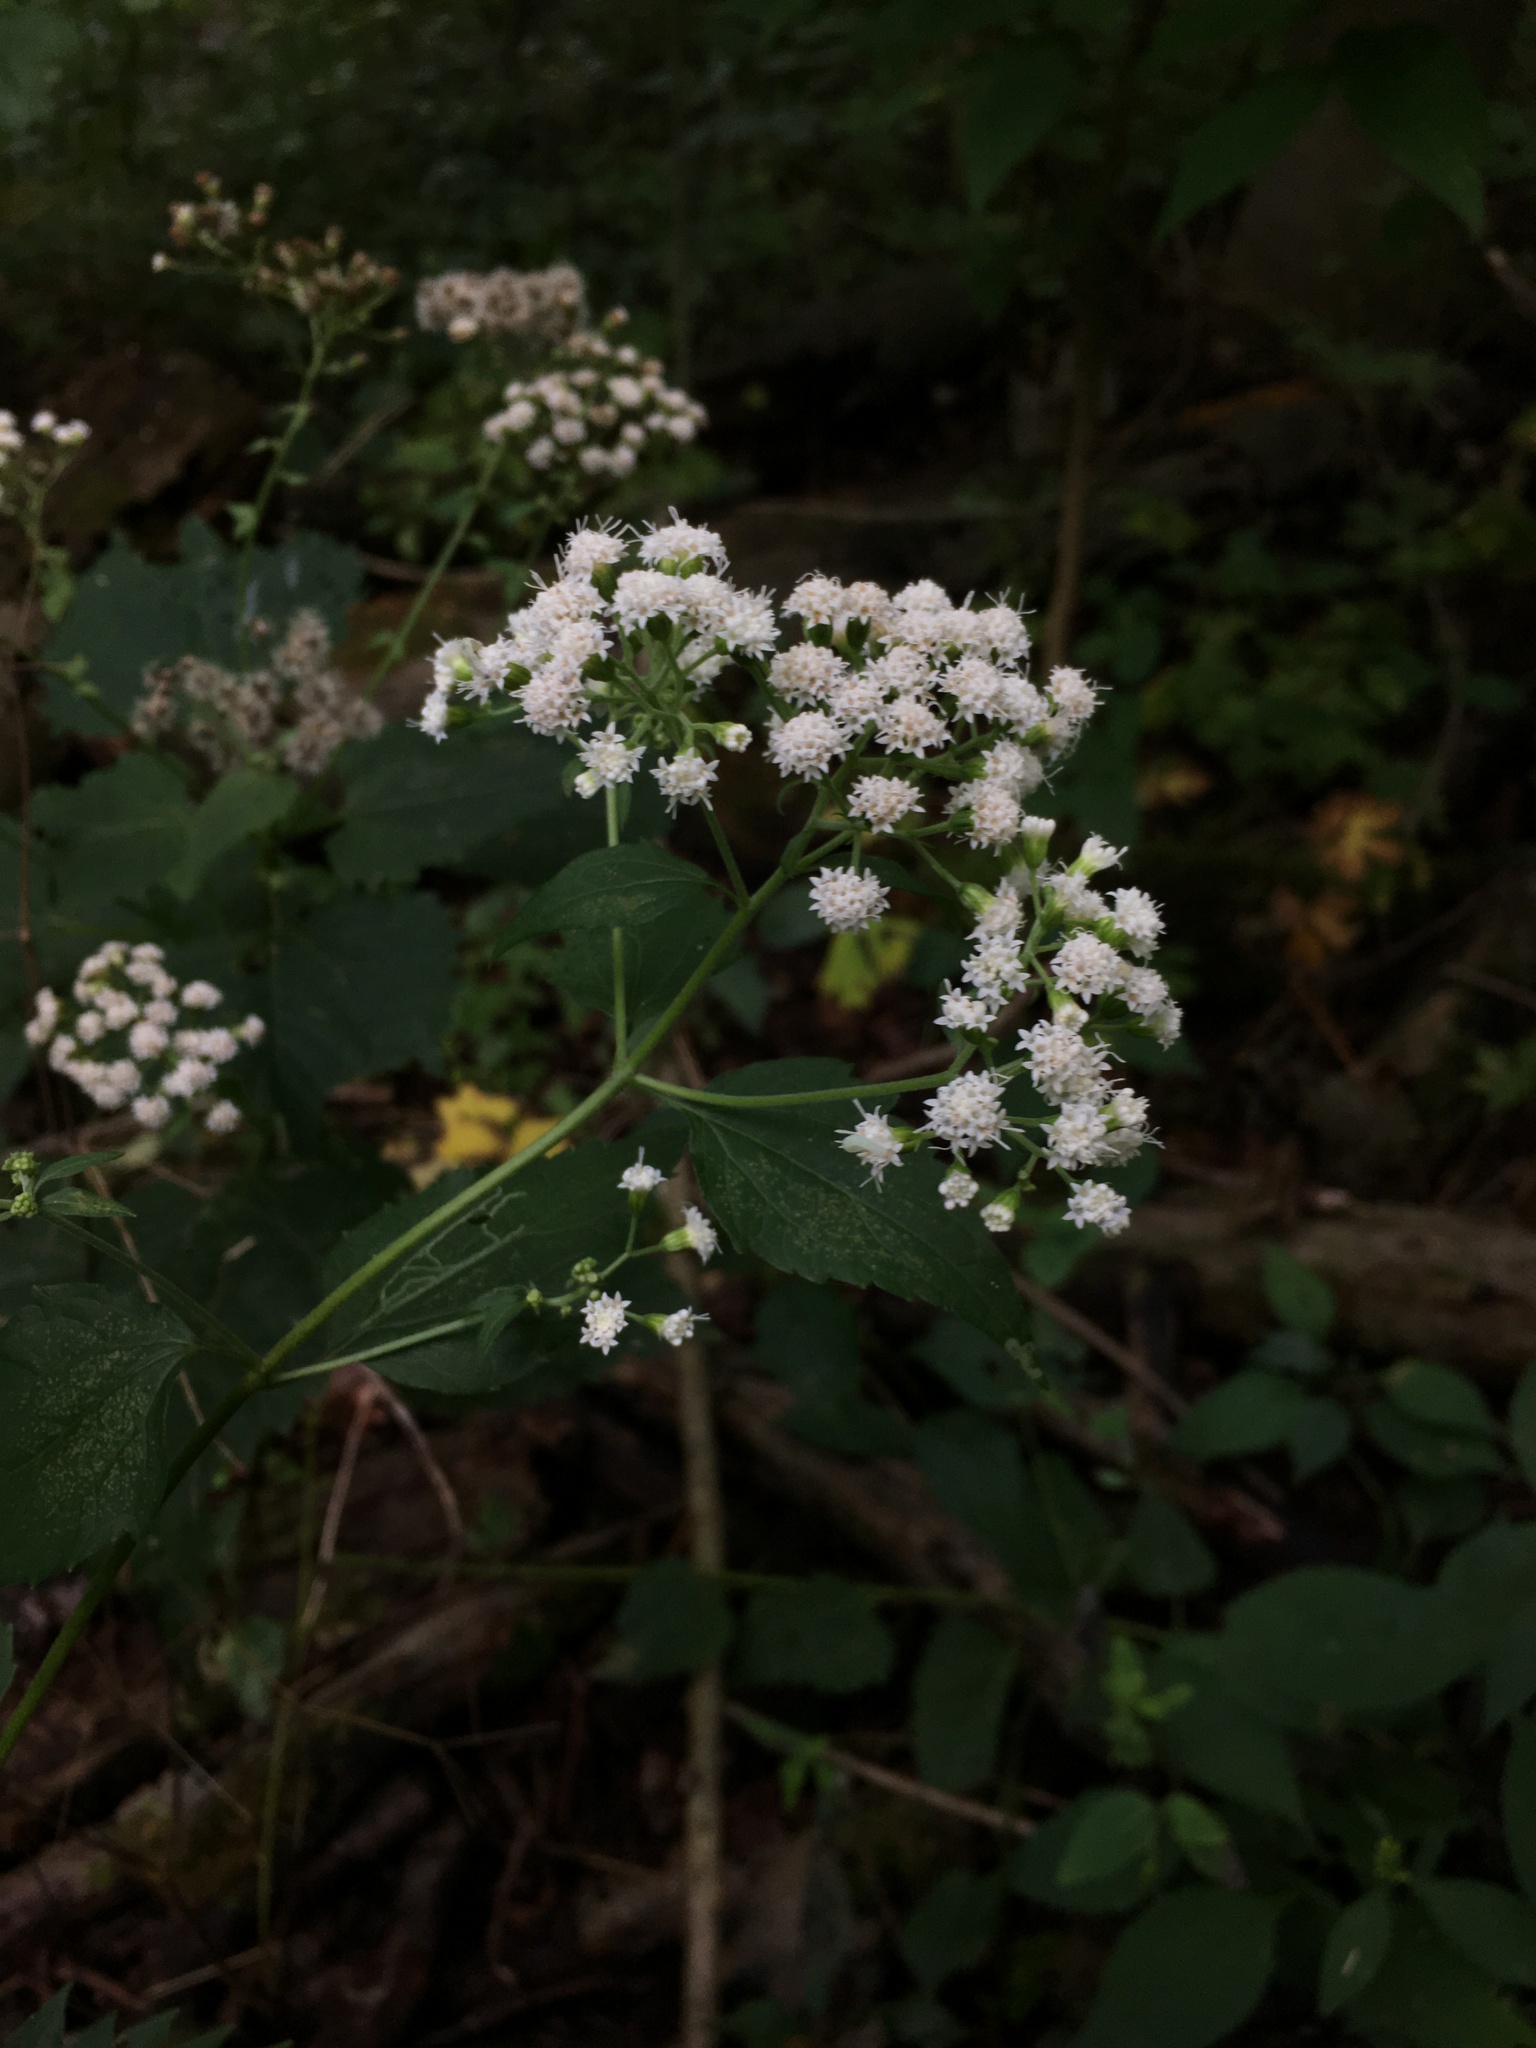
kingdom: Plantae
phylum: Tracheophyta
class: Magnoliopsida
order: Asterales
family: Asteraceae
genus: Ageratina
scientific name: Ageratina altissima
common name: White snakeroot
